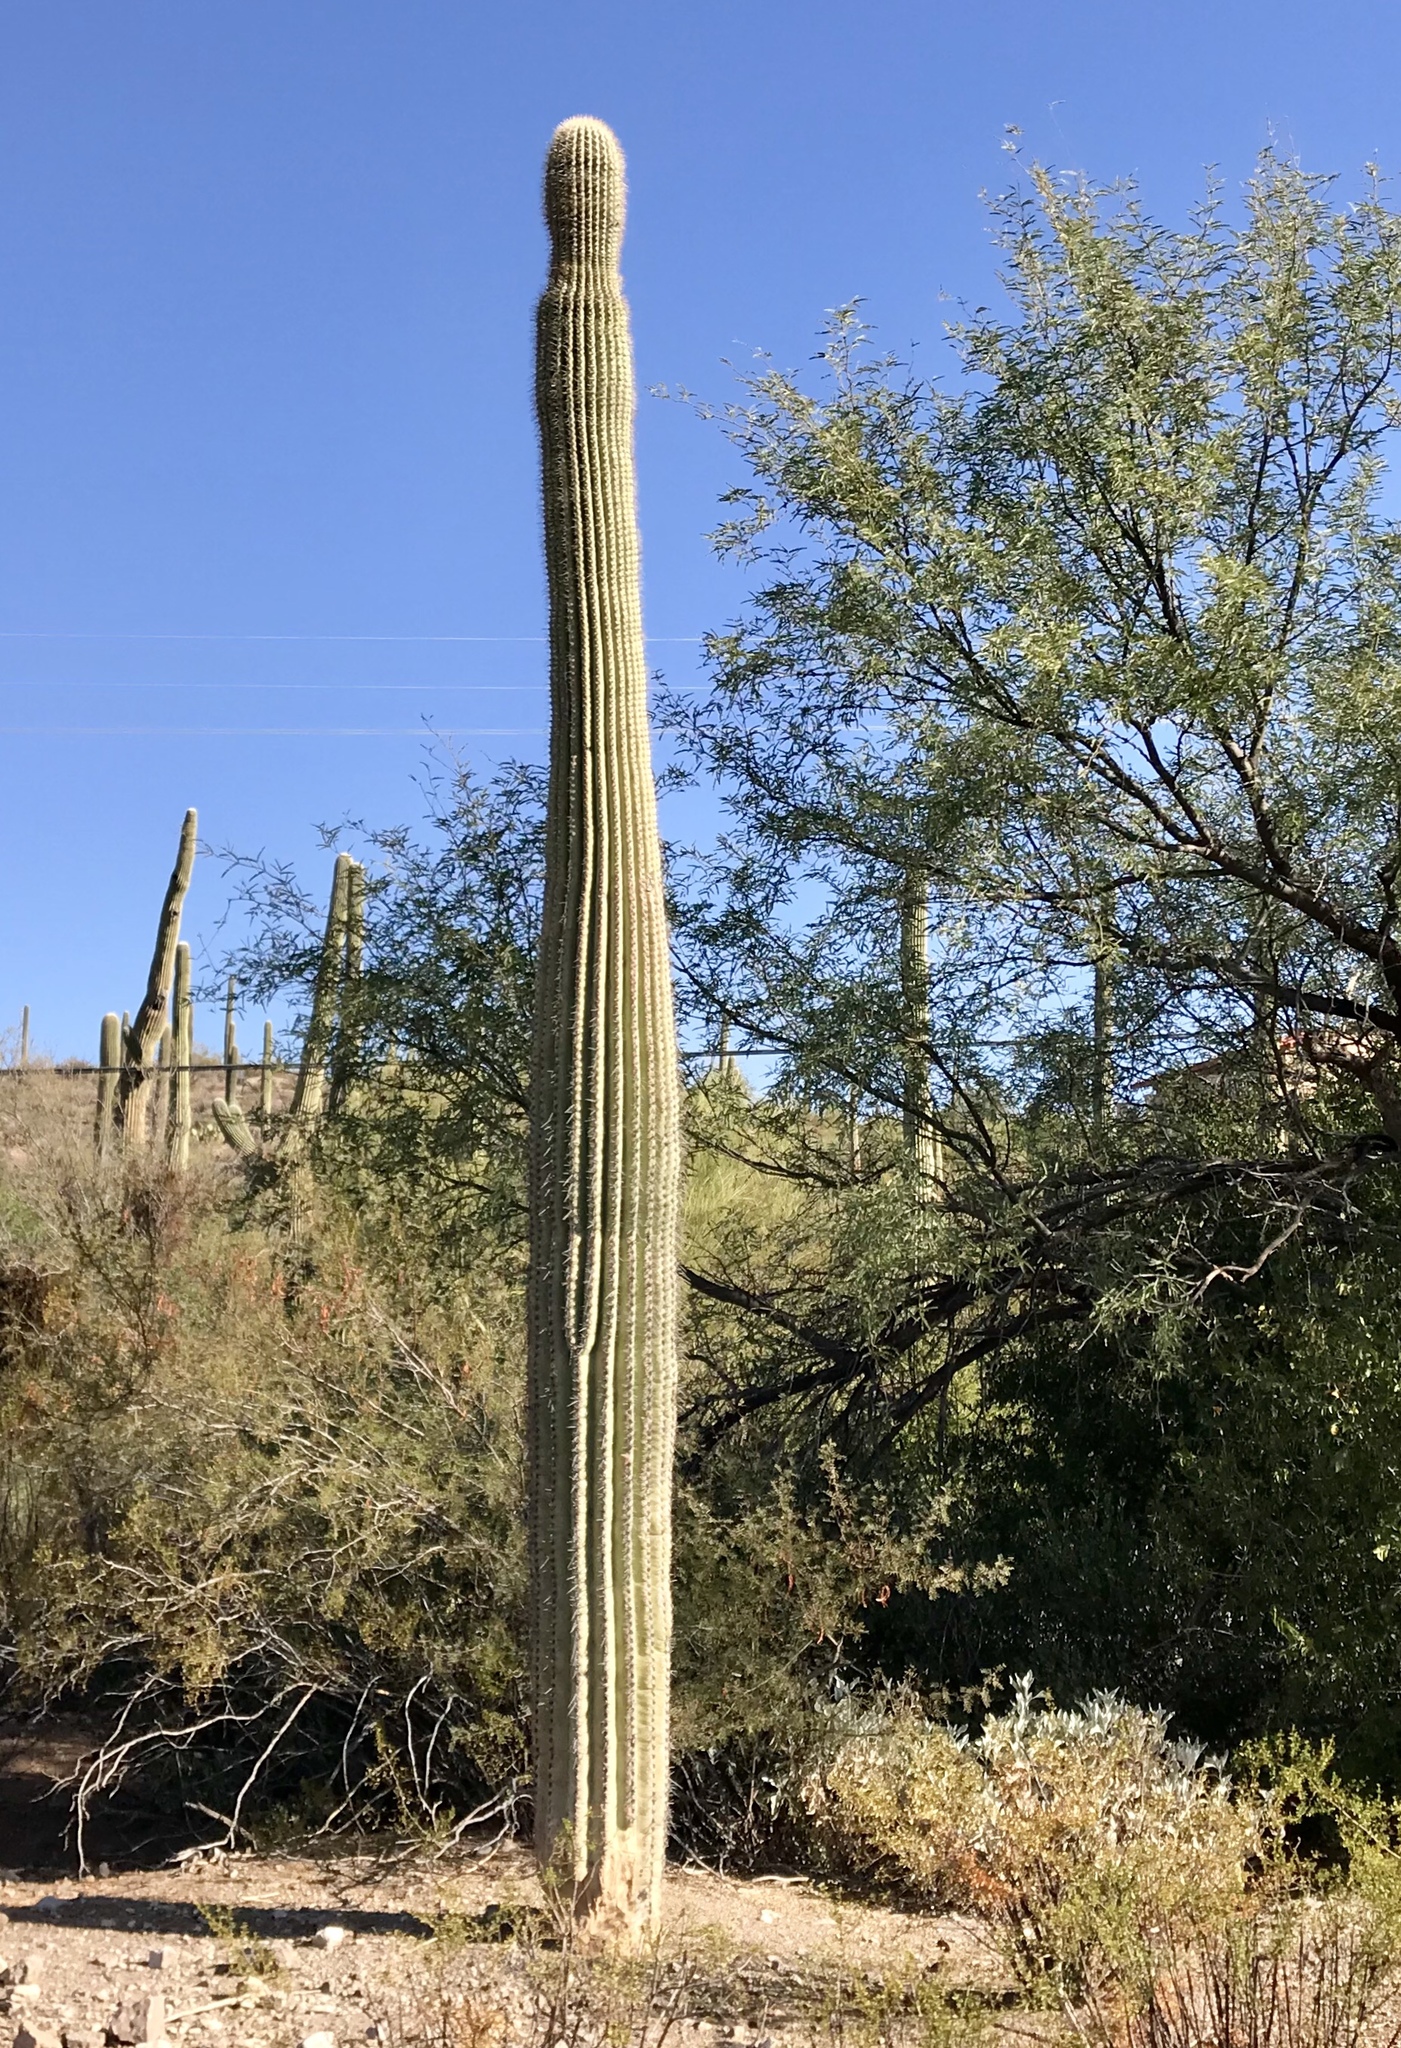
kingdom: Plantae
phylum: Tracheophyta
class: Magnoliopsida
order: Caryophyllales
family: Cactaceae
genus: Carnegiea
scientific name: Carnegiea gigantea
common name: Saguaro
